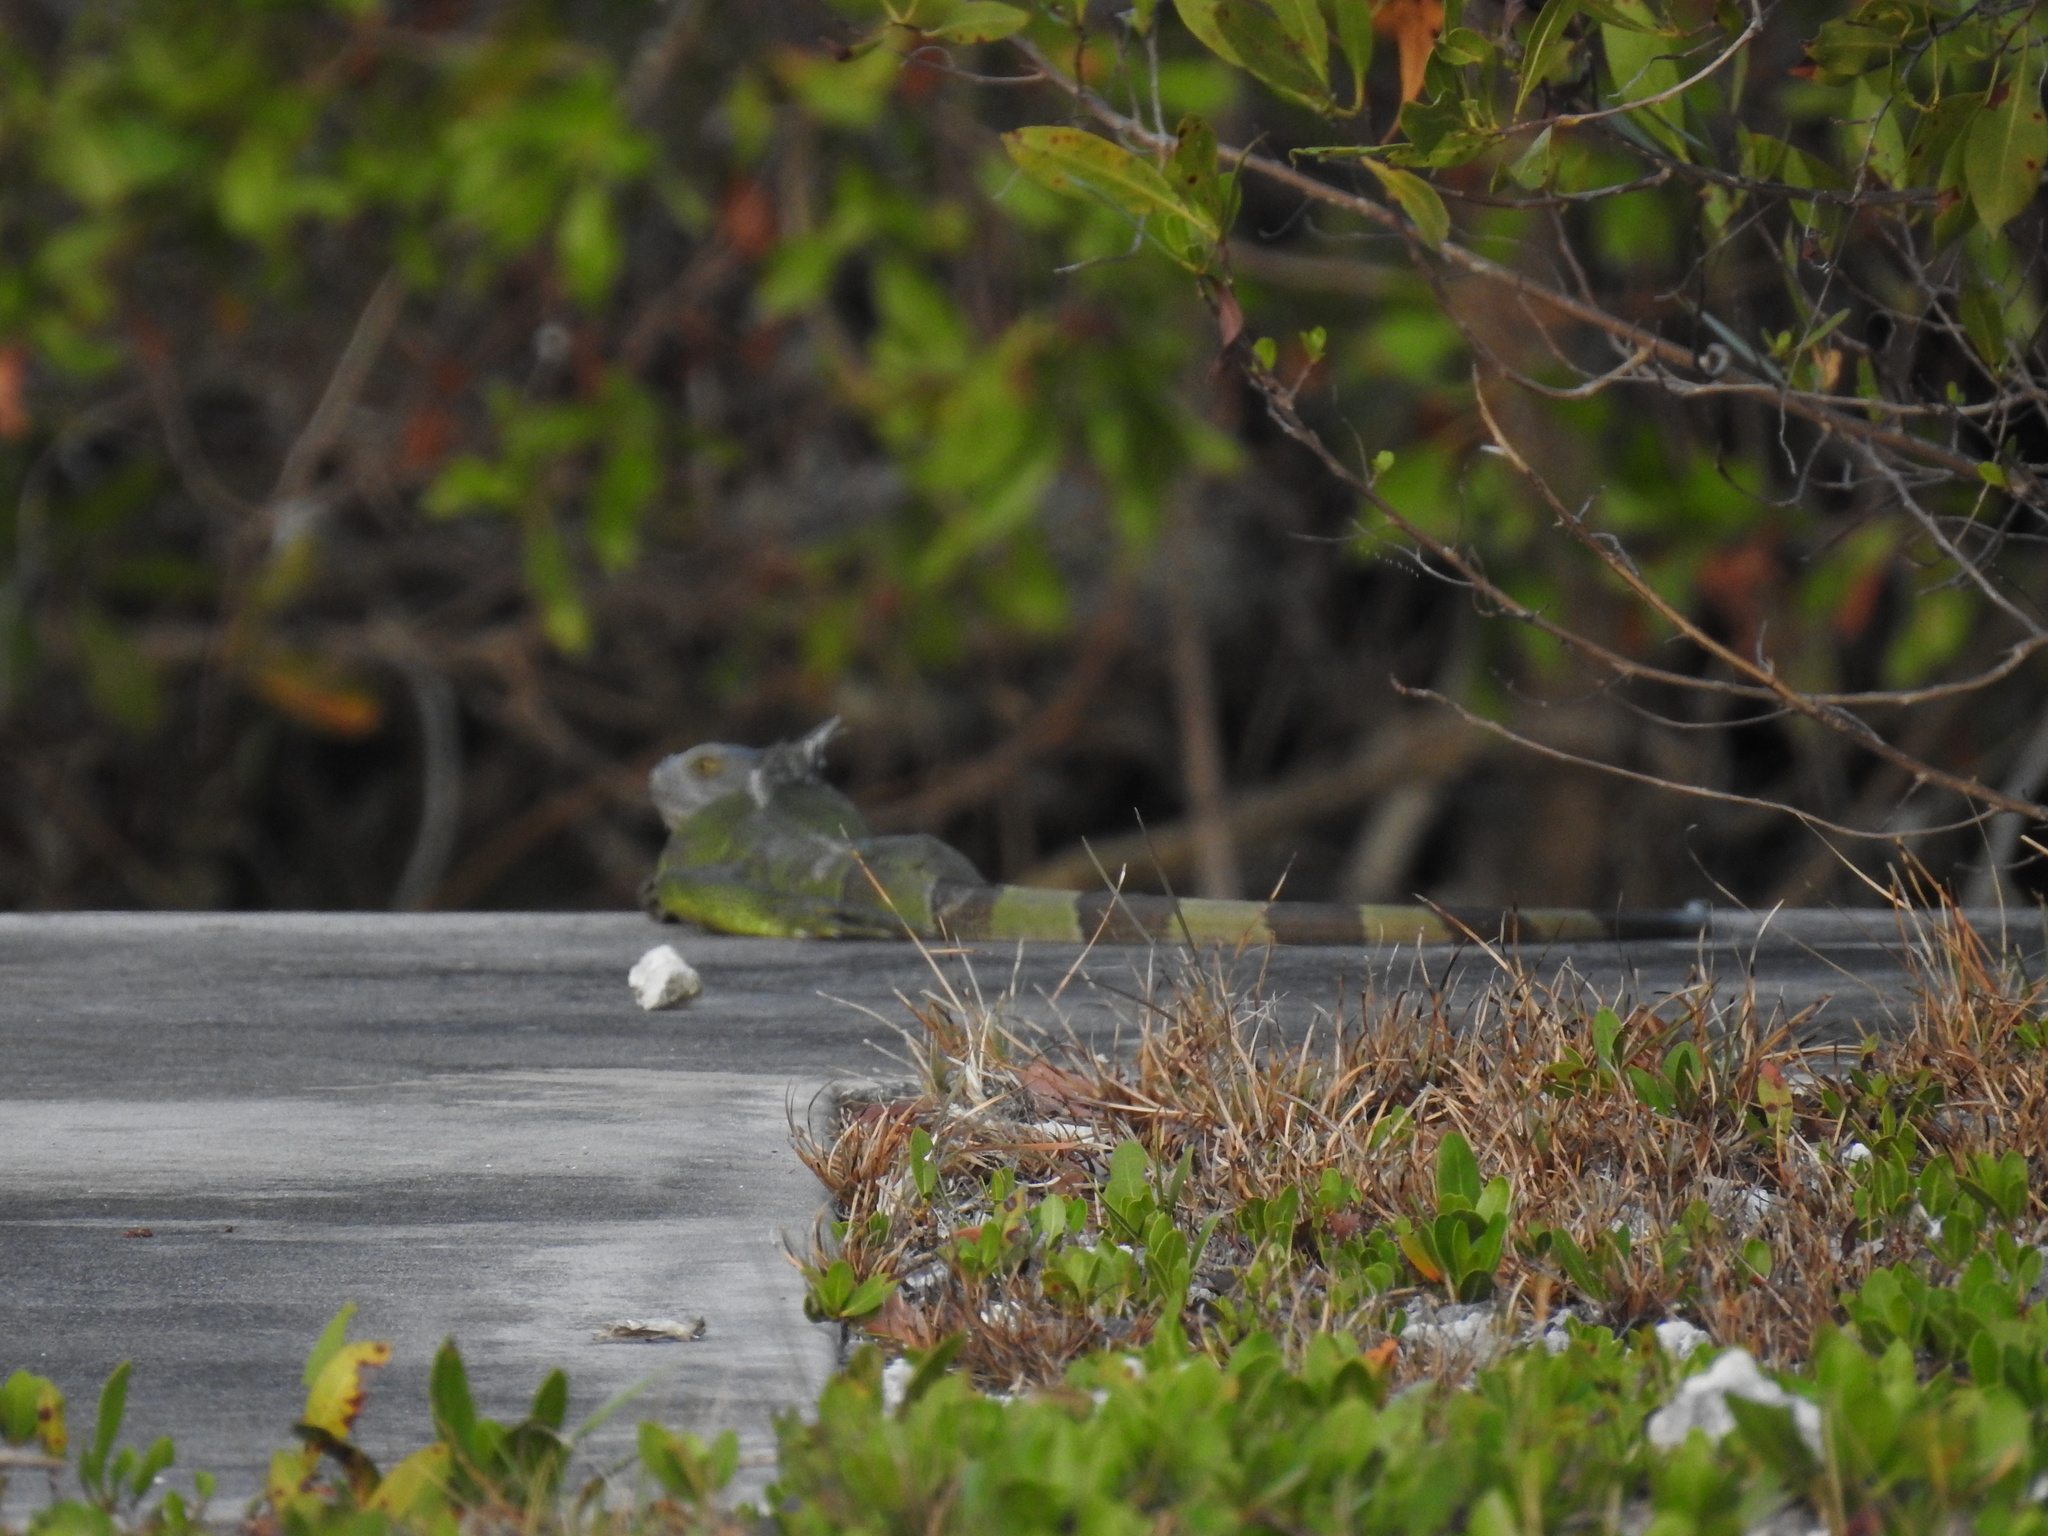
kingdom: Animalia
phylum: Chordata
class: Squamata
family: Iguanidae
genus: Iguana
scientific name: Iguana iguana
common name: Green iguana
